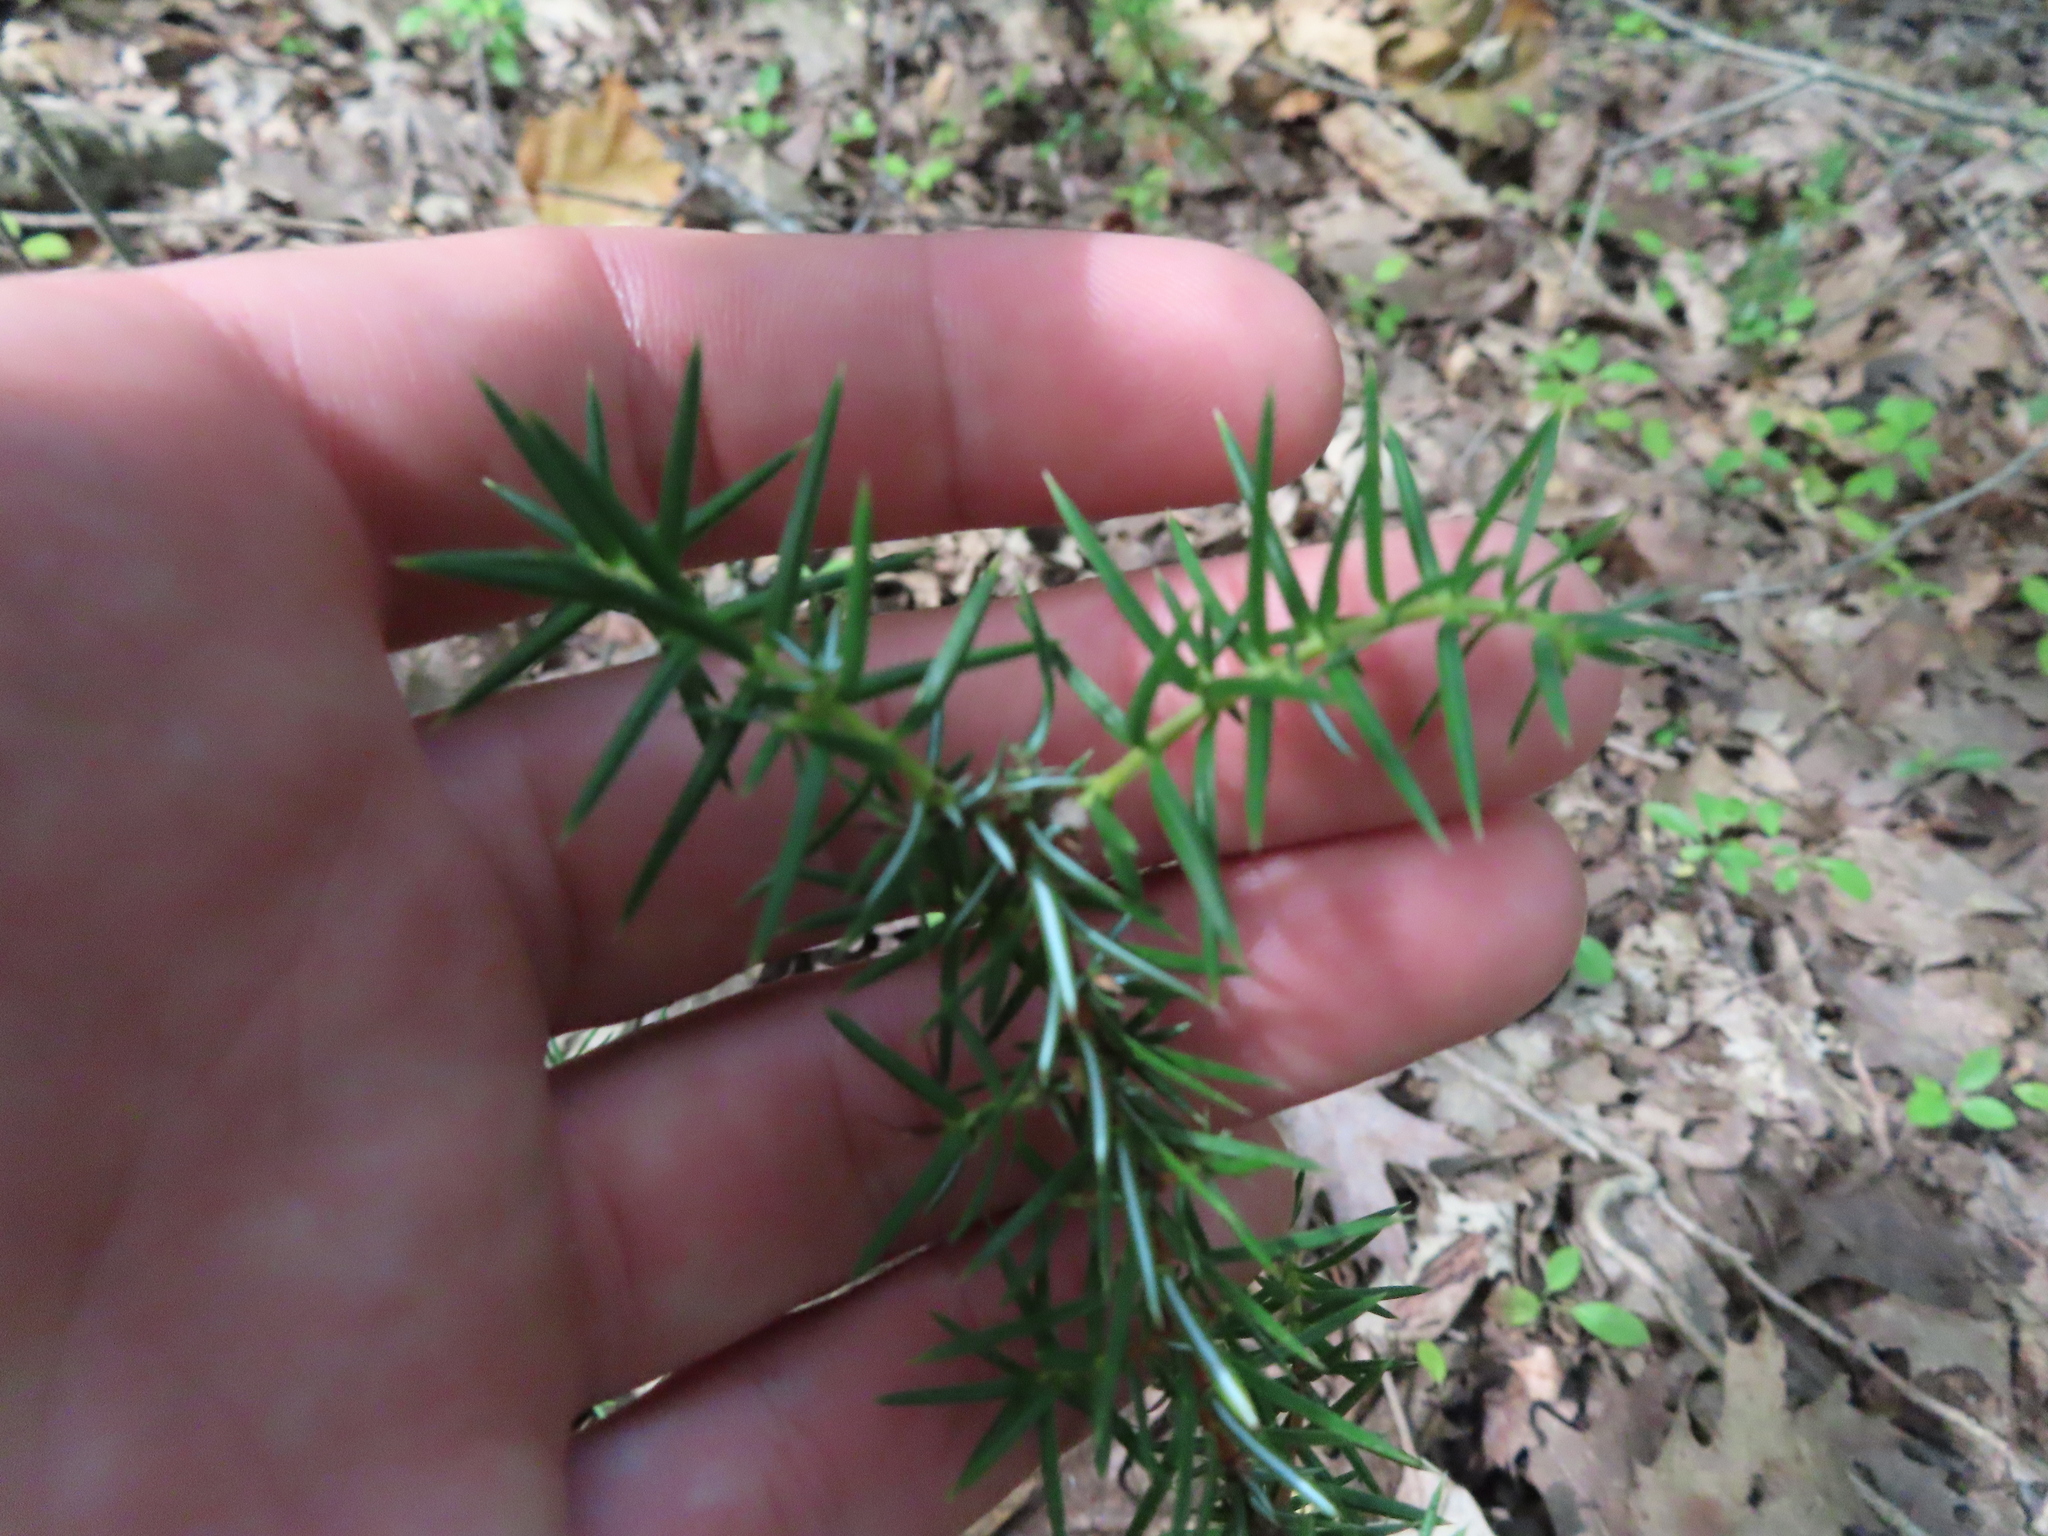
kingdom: Plantae
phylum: Tracheophyta
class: Pinopsida
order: Pinales
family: Cupressaceae
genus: Juniperus
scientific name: Juniperus communis
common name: Common juniper
